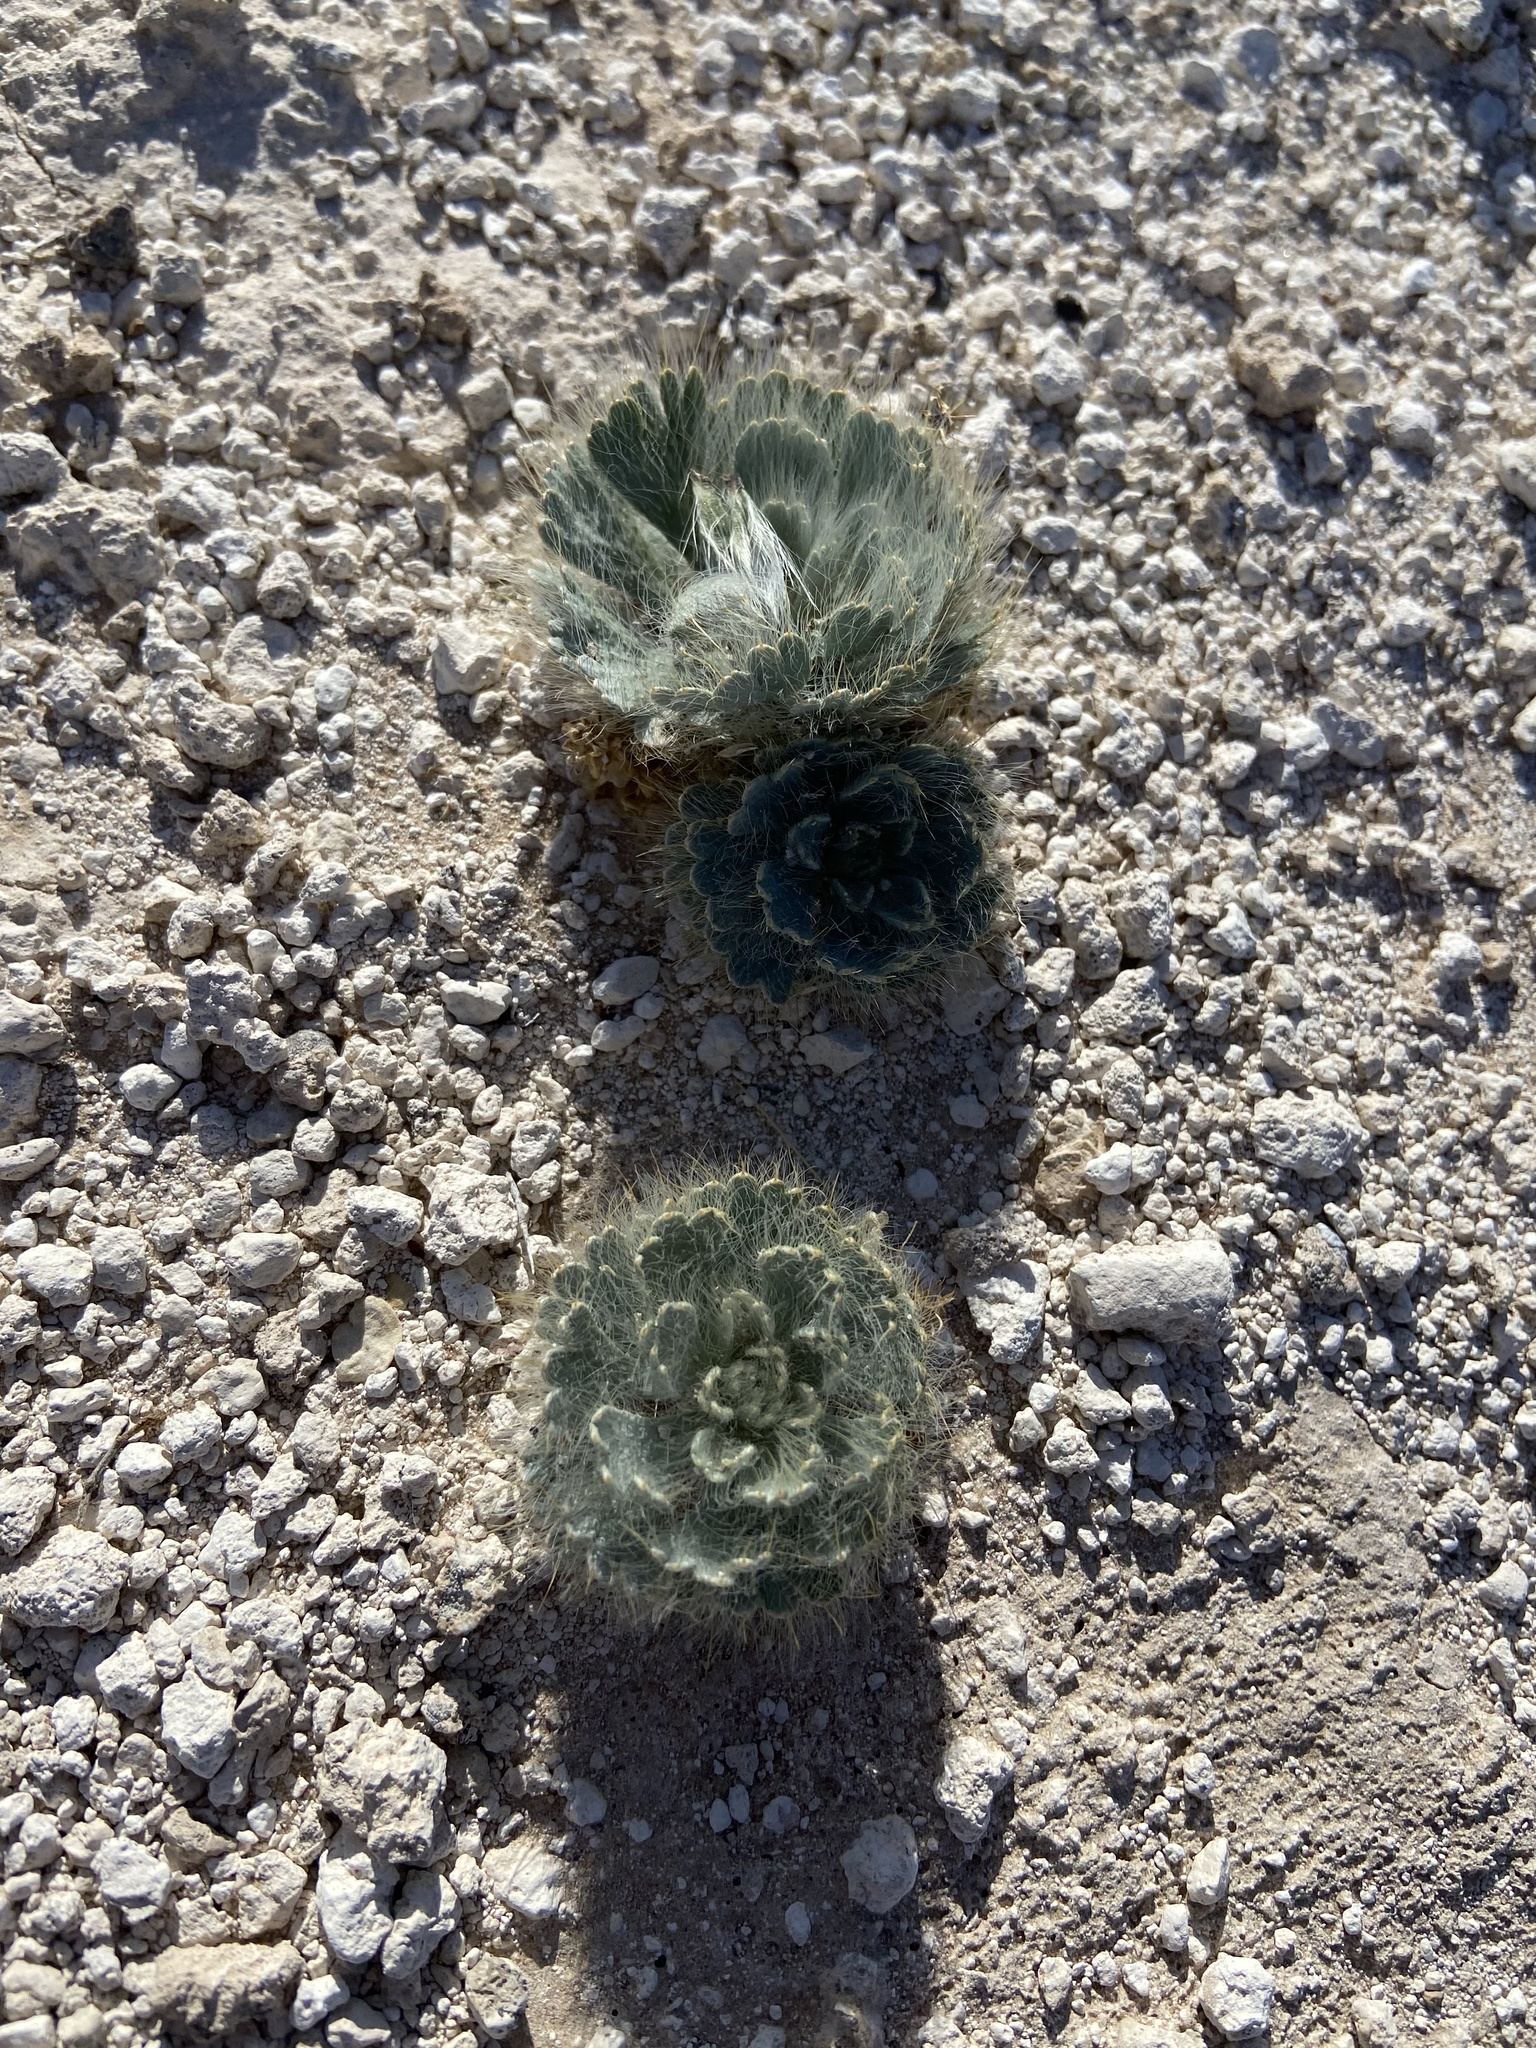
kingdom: Plantae
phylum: Tracheophyta
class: Magnoliopsida
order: Ranunculales
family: Papaveraceae
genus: Arctomecon
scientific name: Arctomecon californicum
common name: Golden bearclaw-poppy
